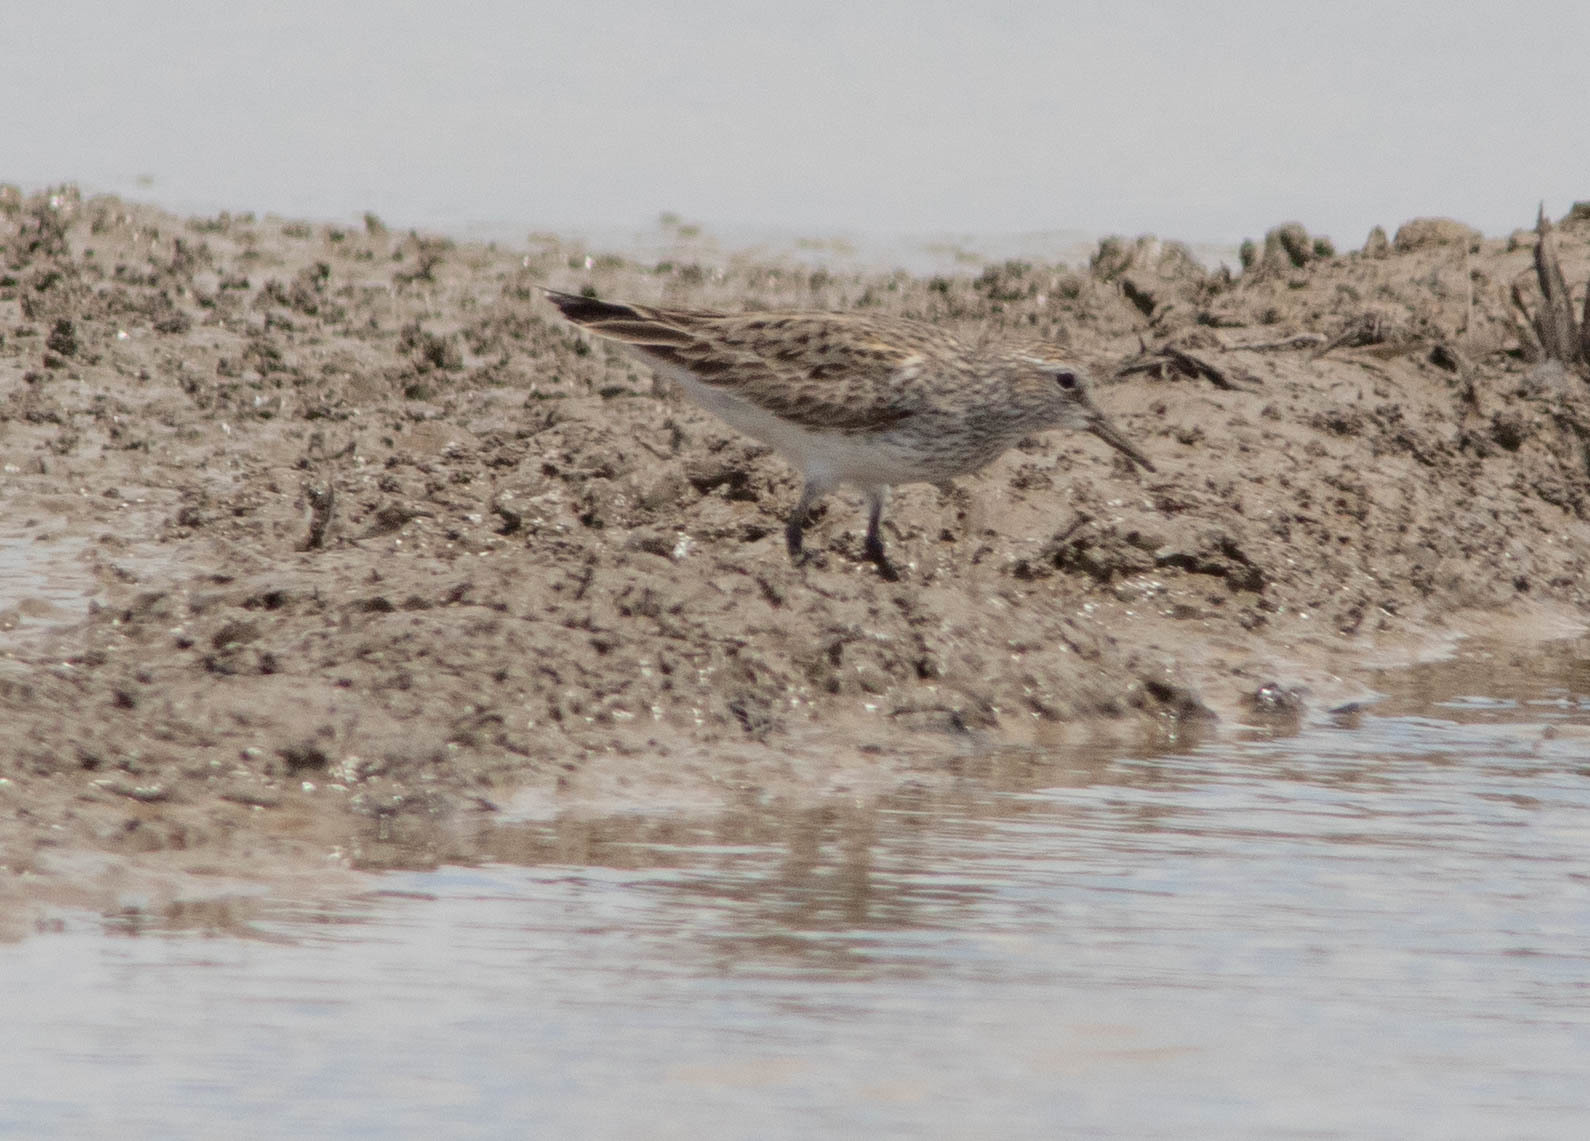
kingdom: Animalia
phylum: Chordata
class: Aves
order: Charadriiformes
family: Scolopacidae
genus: Calidris
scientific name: Calidris fuscicollis
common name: White-rumped sandpiper
